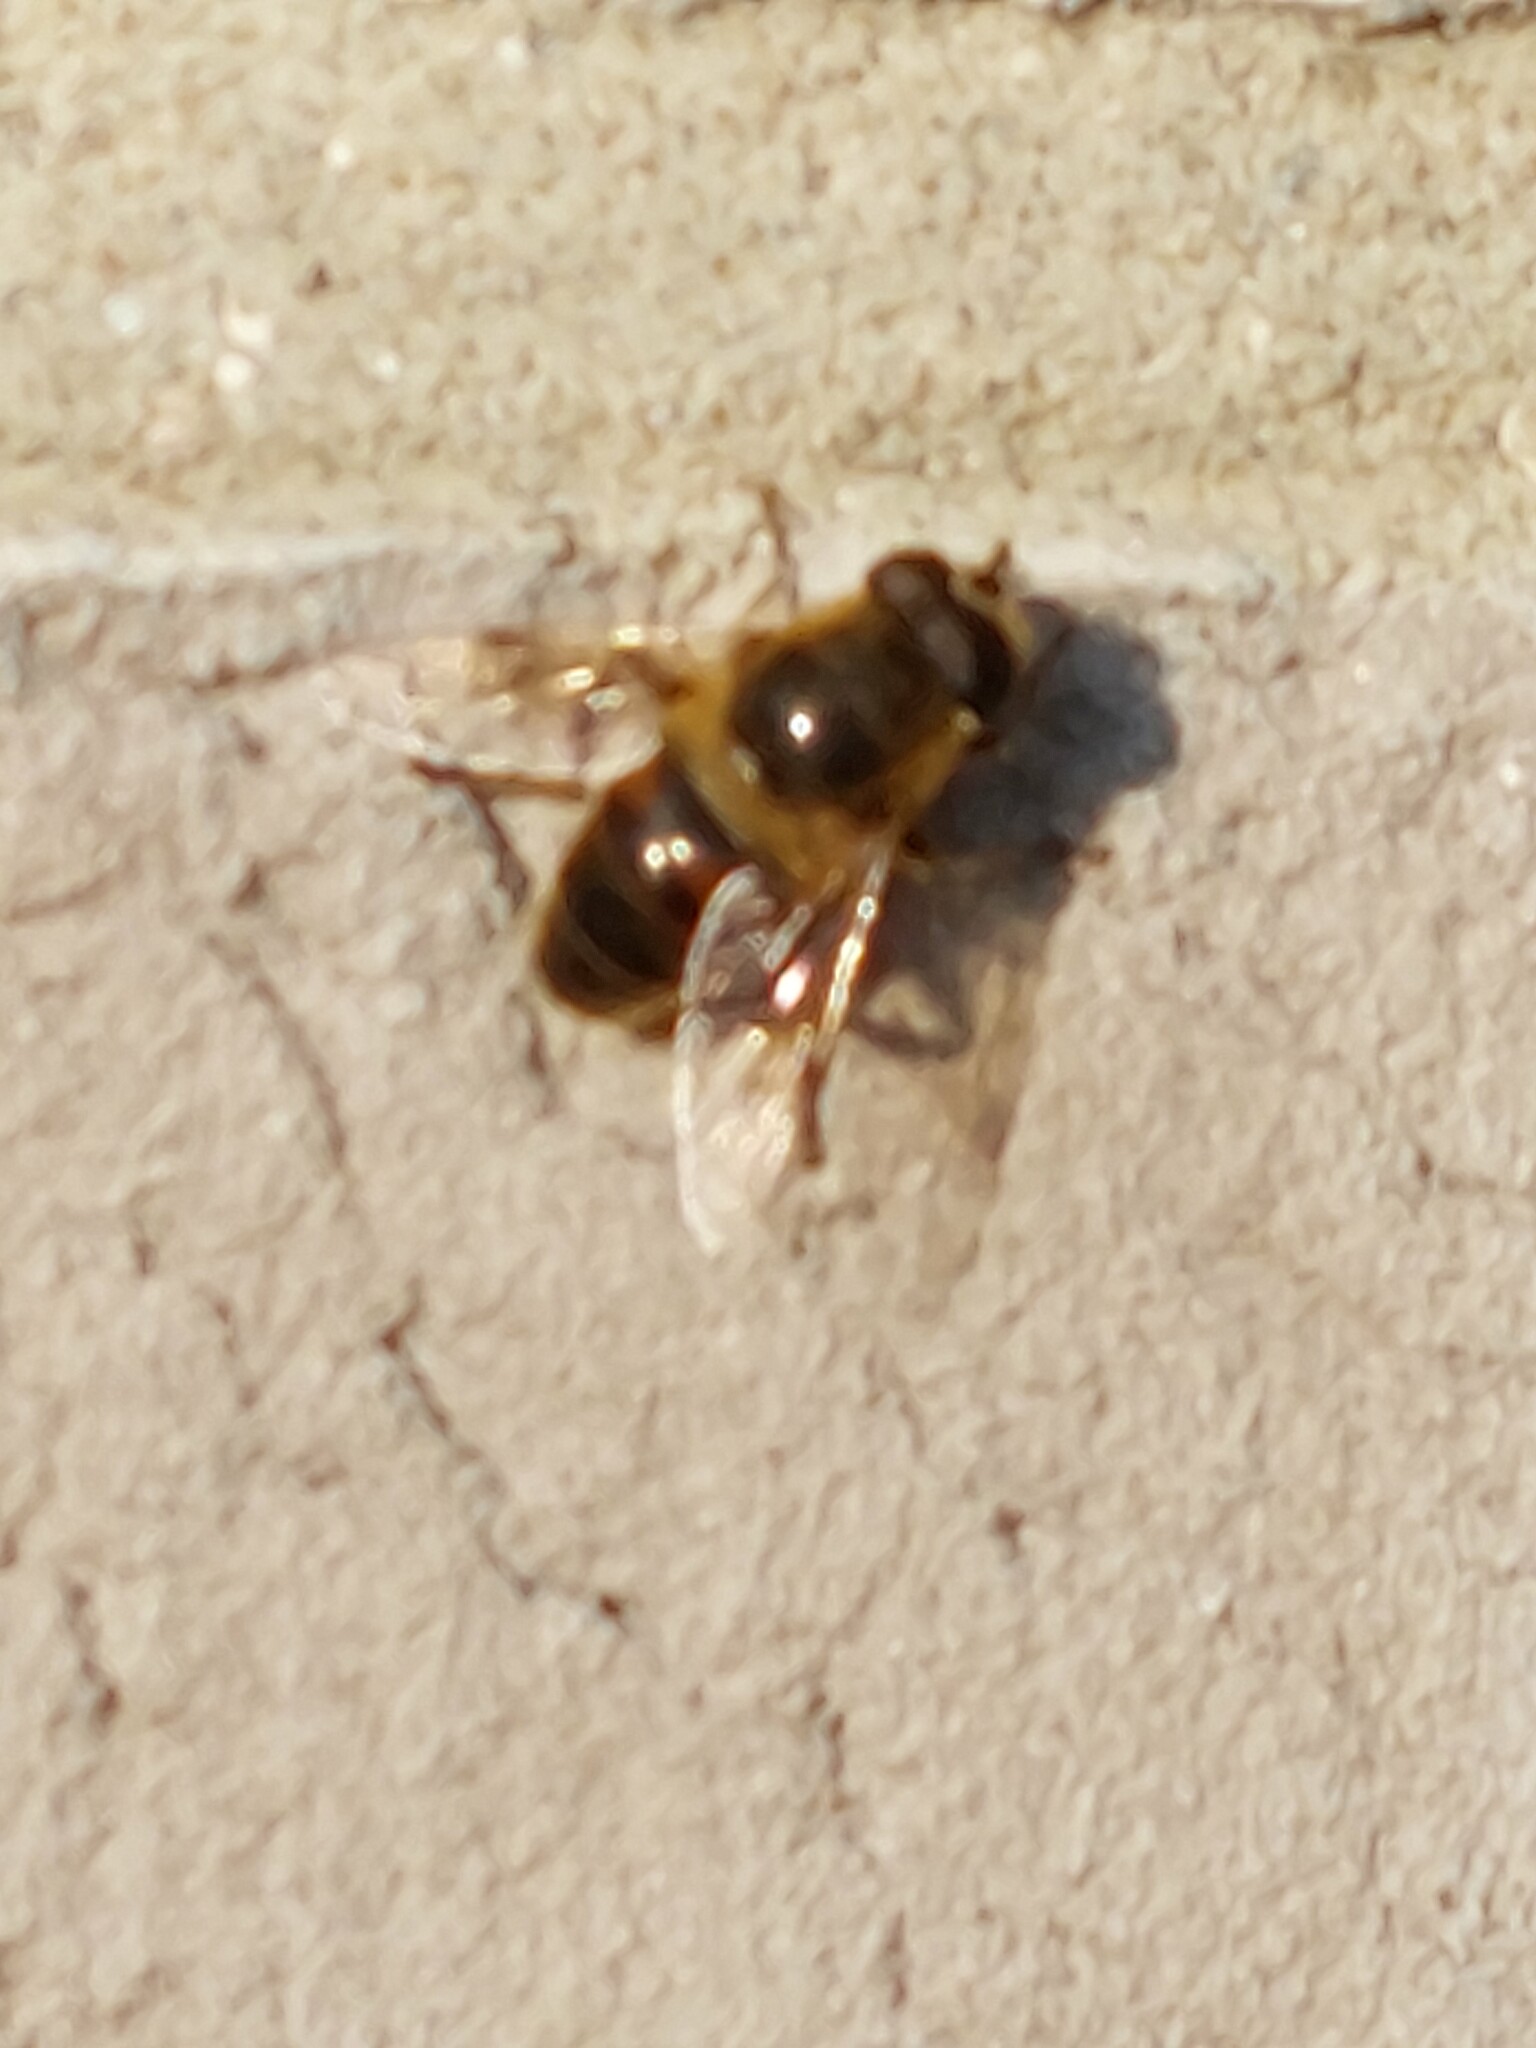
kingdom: Animalia
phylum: Arthropoda
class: Insecta
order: Diptera
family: Syrphidae
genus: Eristalis
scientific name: Eristalis tenax
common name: Drone fly
